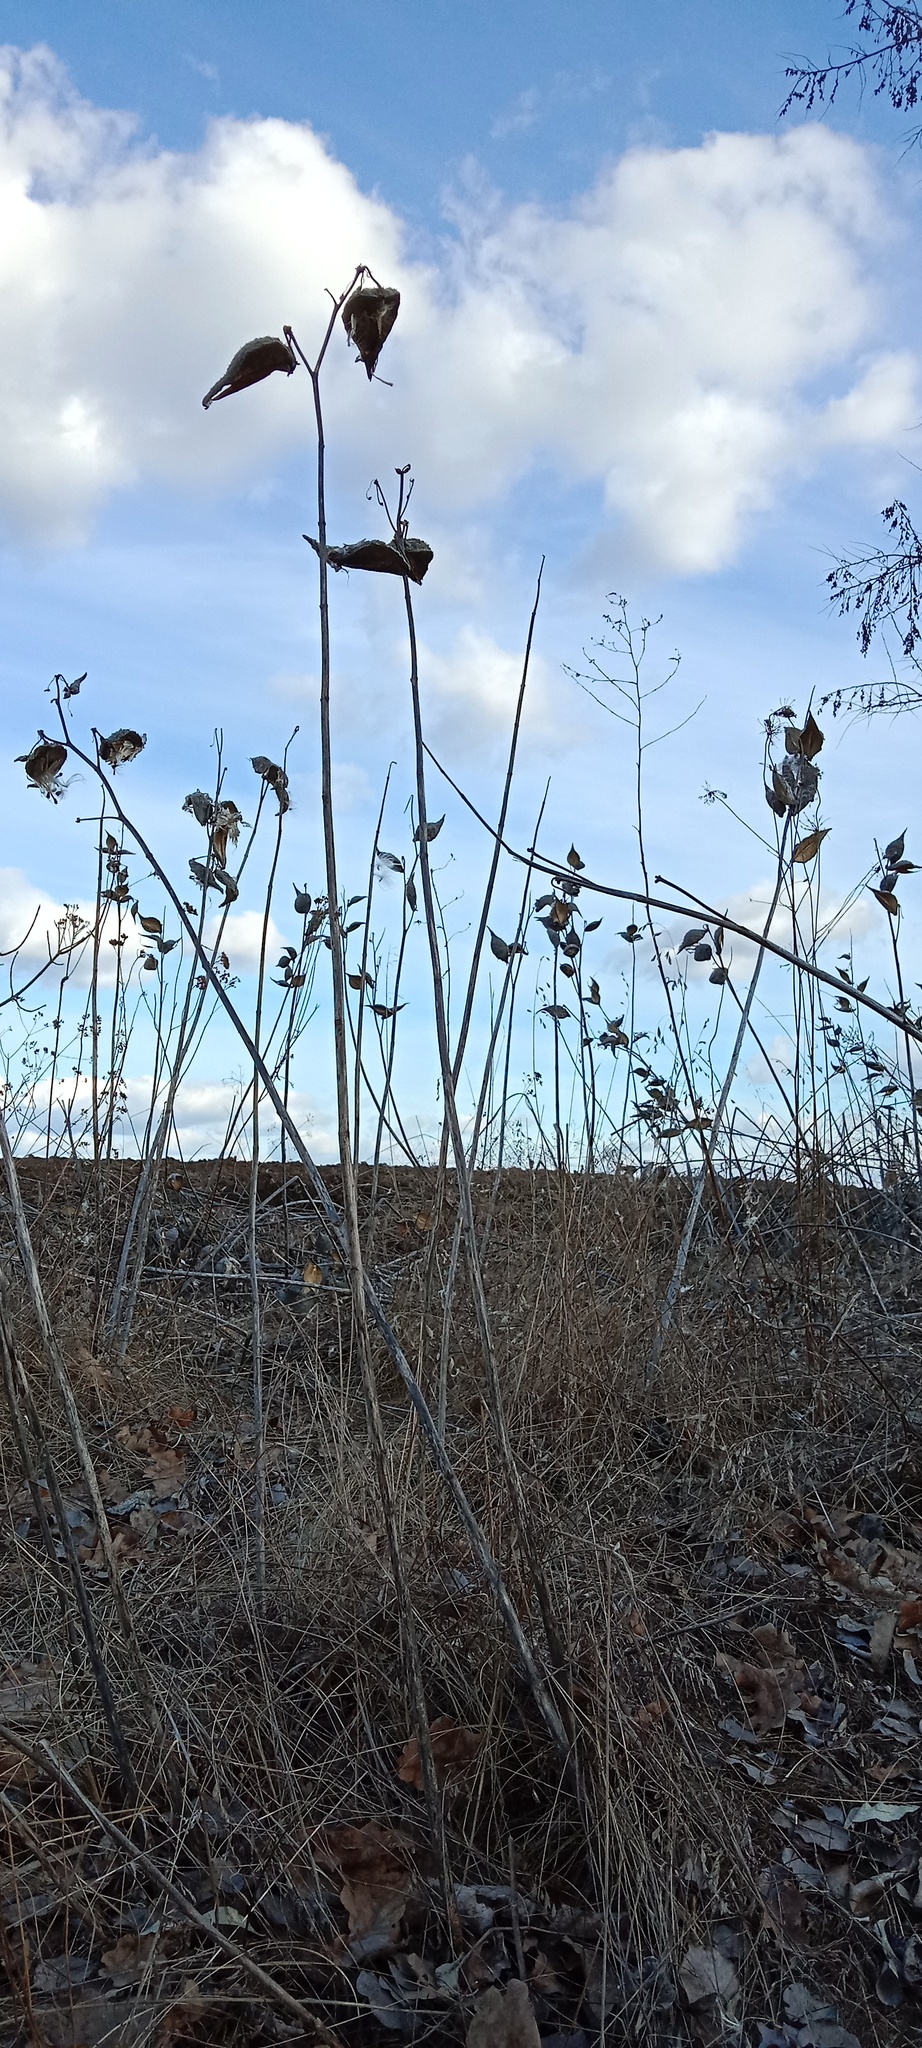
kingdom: Plantae
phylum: Tracheophyta
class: Magnoliopsida
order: Gentianales
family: Apocynaceae
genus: Asclepias
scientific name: Asclepias syriaca
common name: Common milkweed
